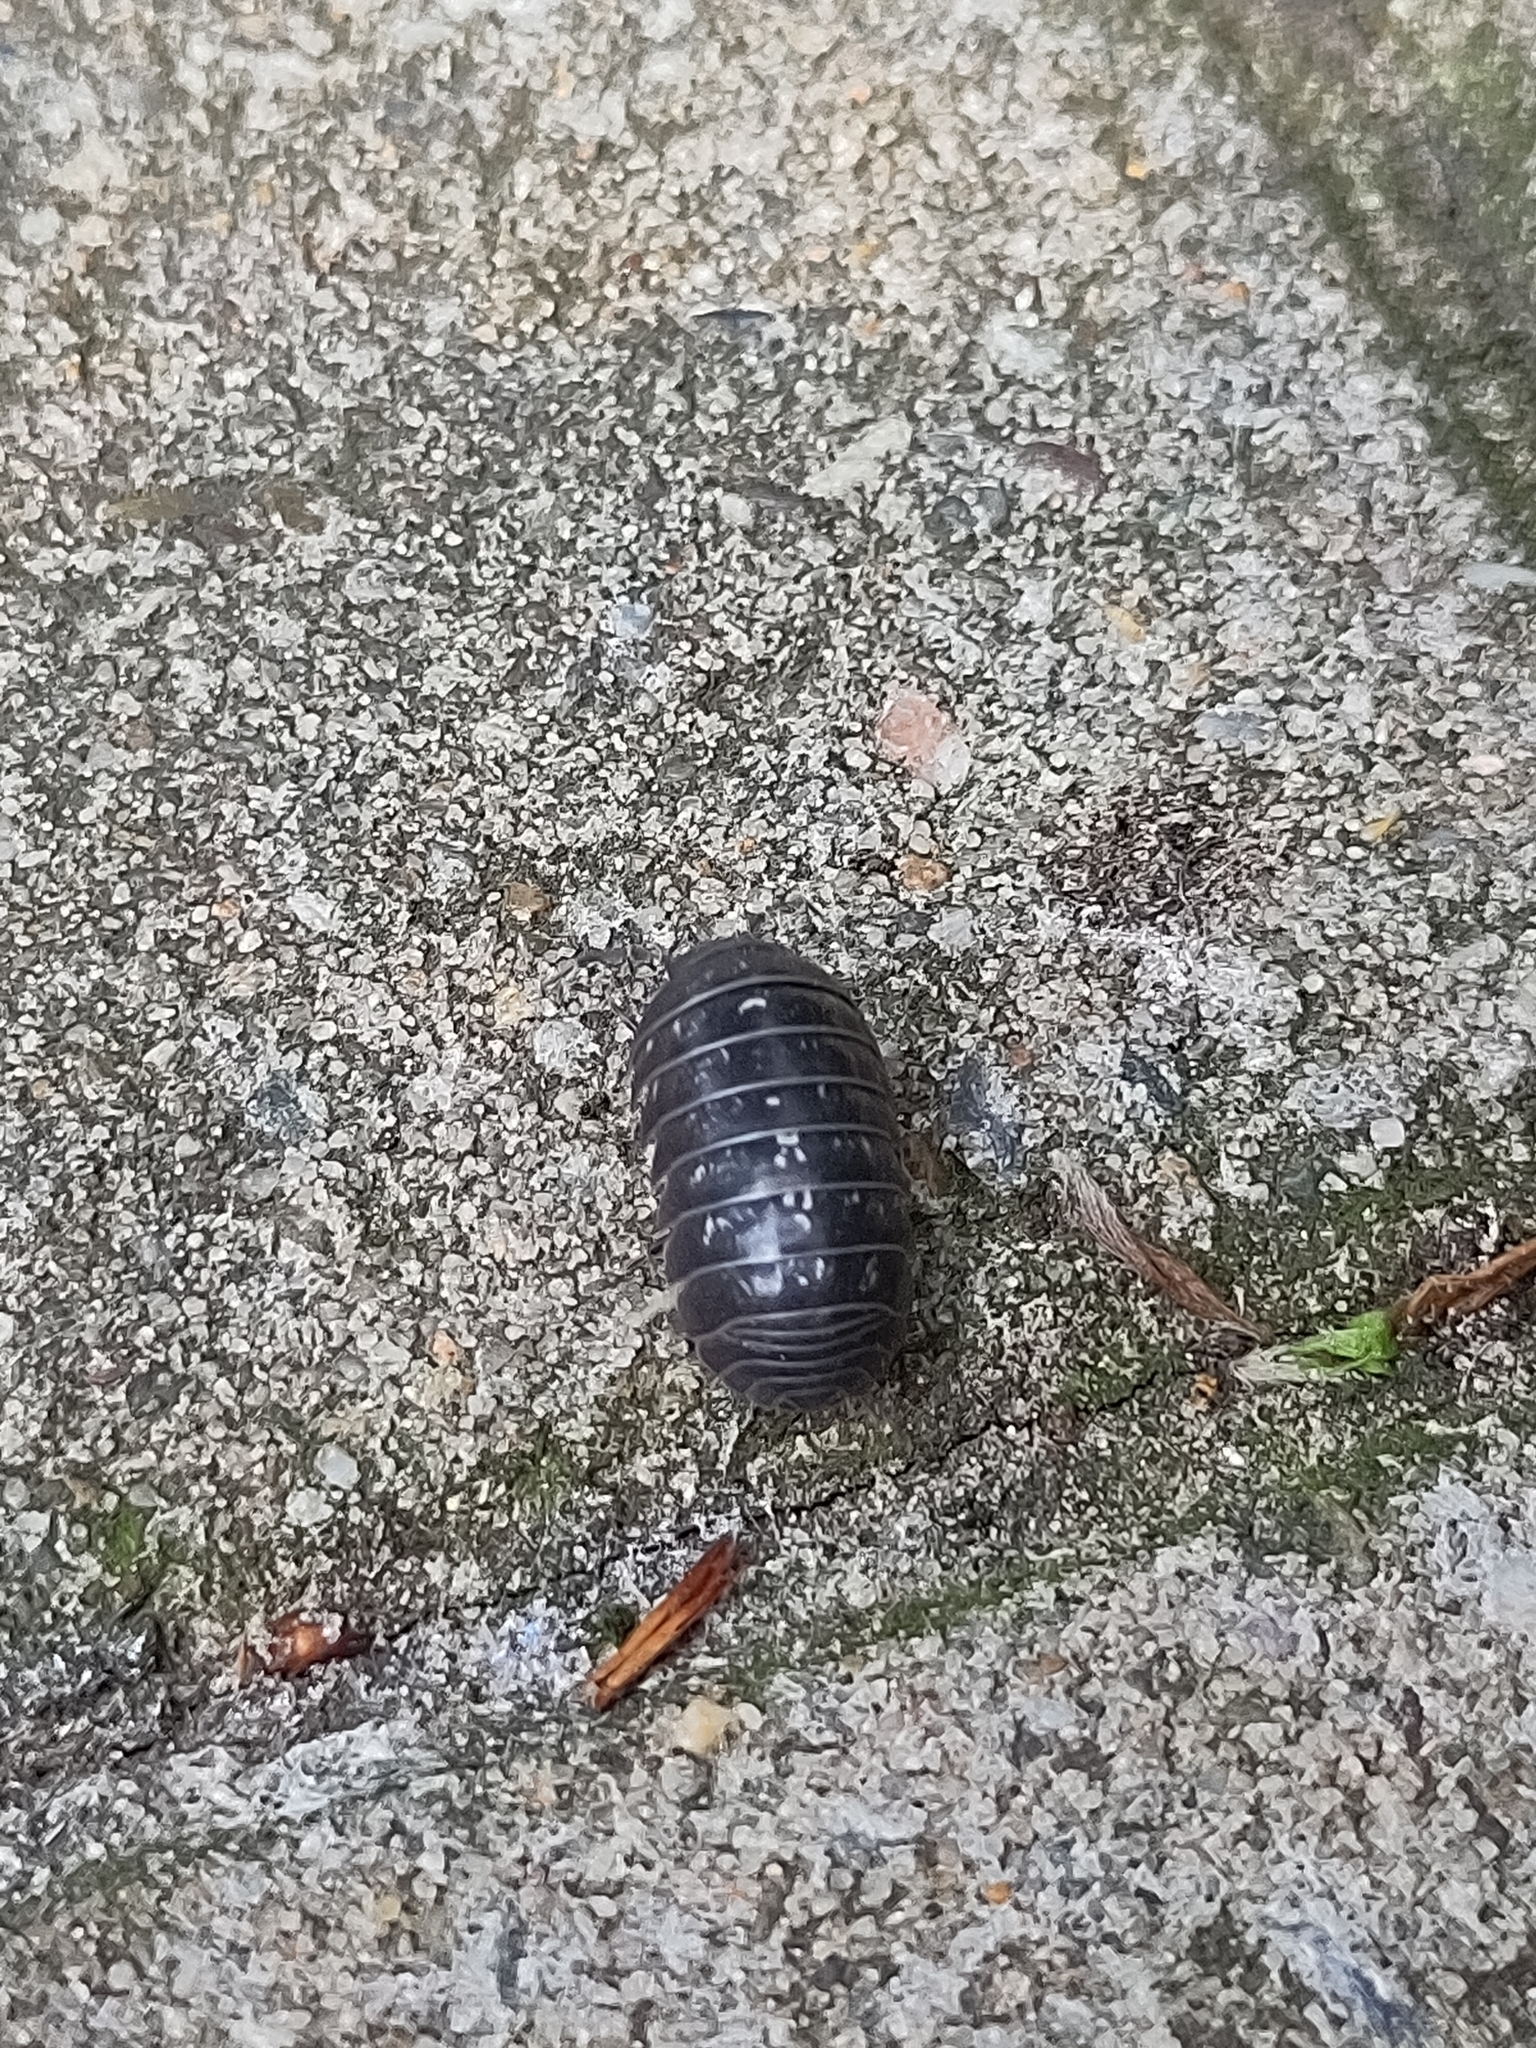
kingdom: Animalia
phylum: Arthropoda
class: Malacostraca
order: Isopoda
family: Armadillidiidae
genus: Armadillidium
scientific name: Armadillidium vulgare
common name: Common pill woodlouse
